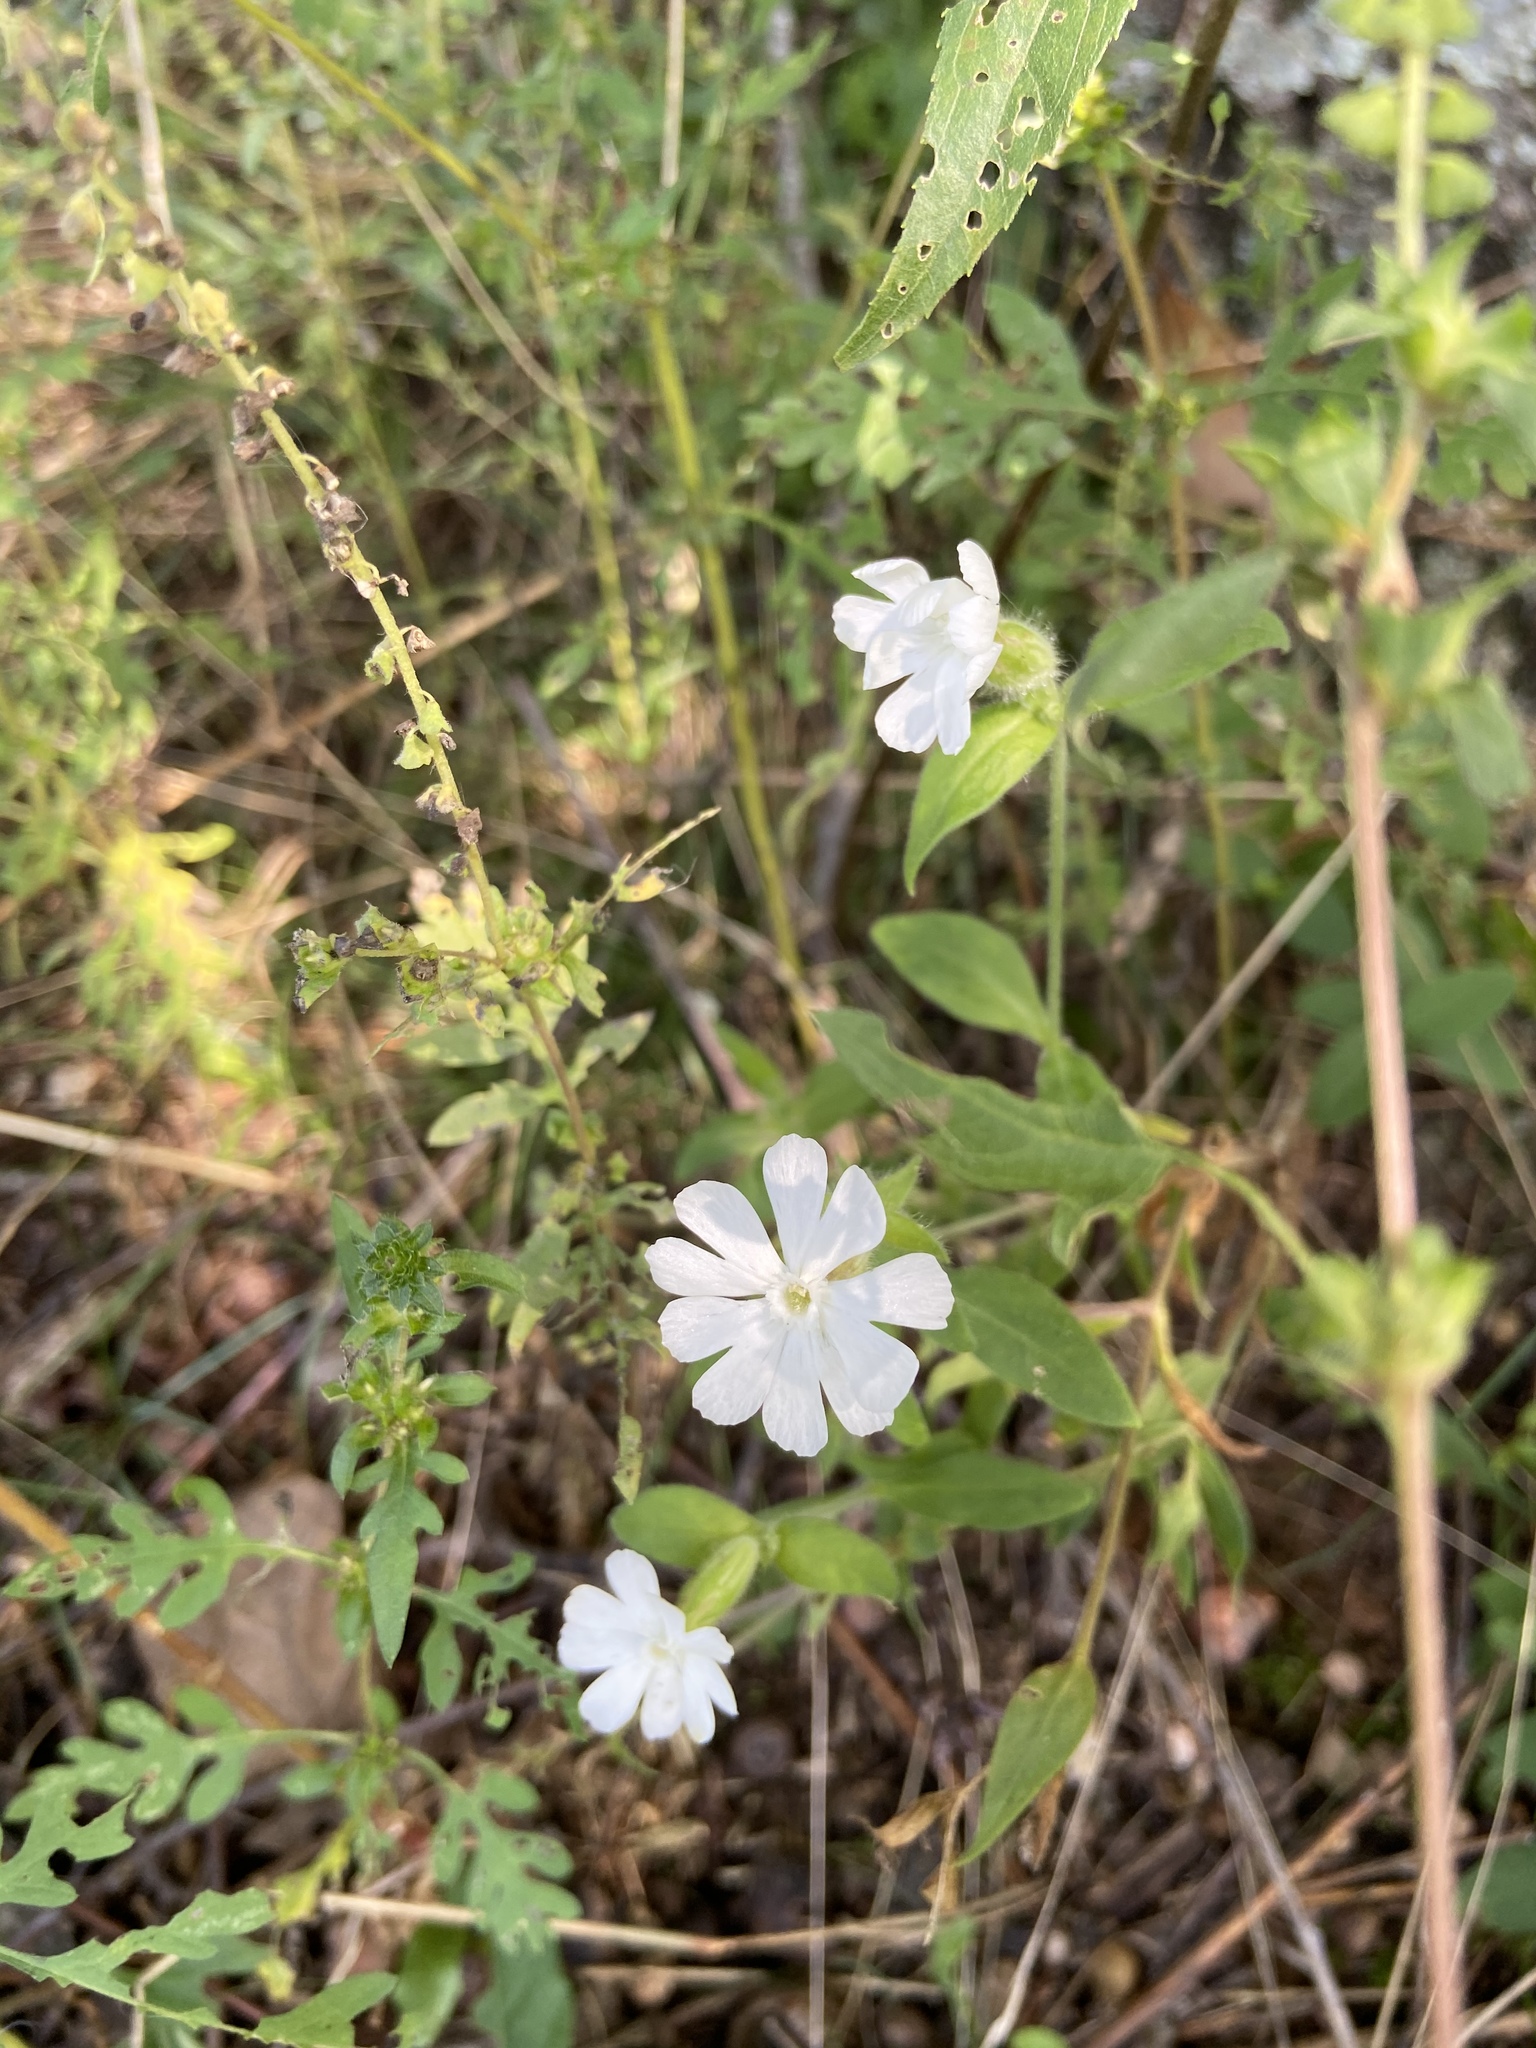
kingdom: Plantae
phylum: Tracheophyta
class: Magnoliopsida
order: Caryophyllales
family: Caryophyllaceae
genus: Silene
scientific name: Silene latifolia
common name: White campion
